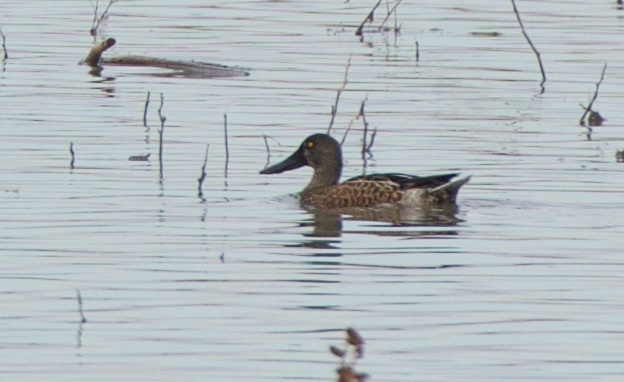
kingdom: Animalia
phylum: Chordata
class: Aves
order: Anseriformes
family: Anatidae
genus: Spatula
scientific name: Spatula clypeata
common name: Northern shoveler
